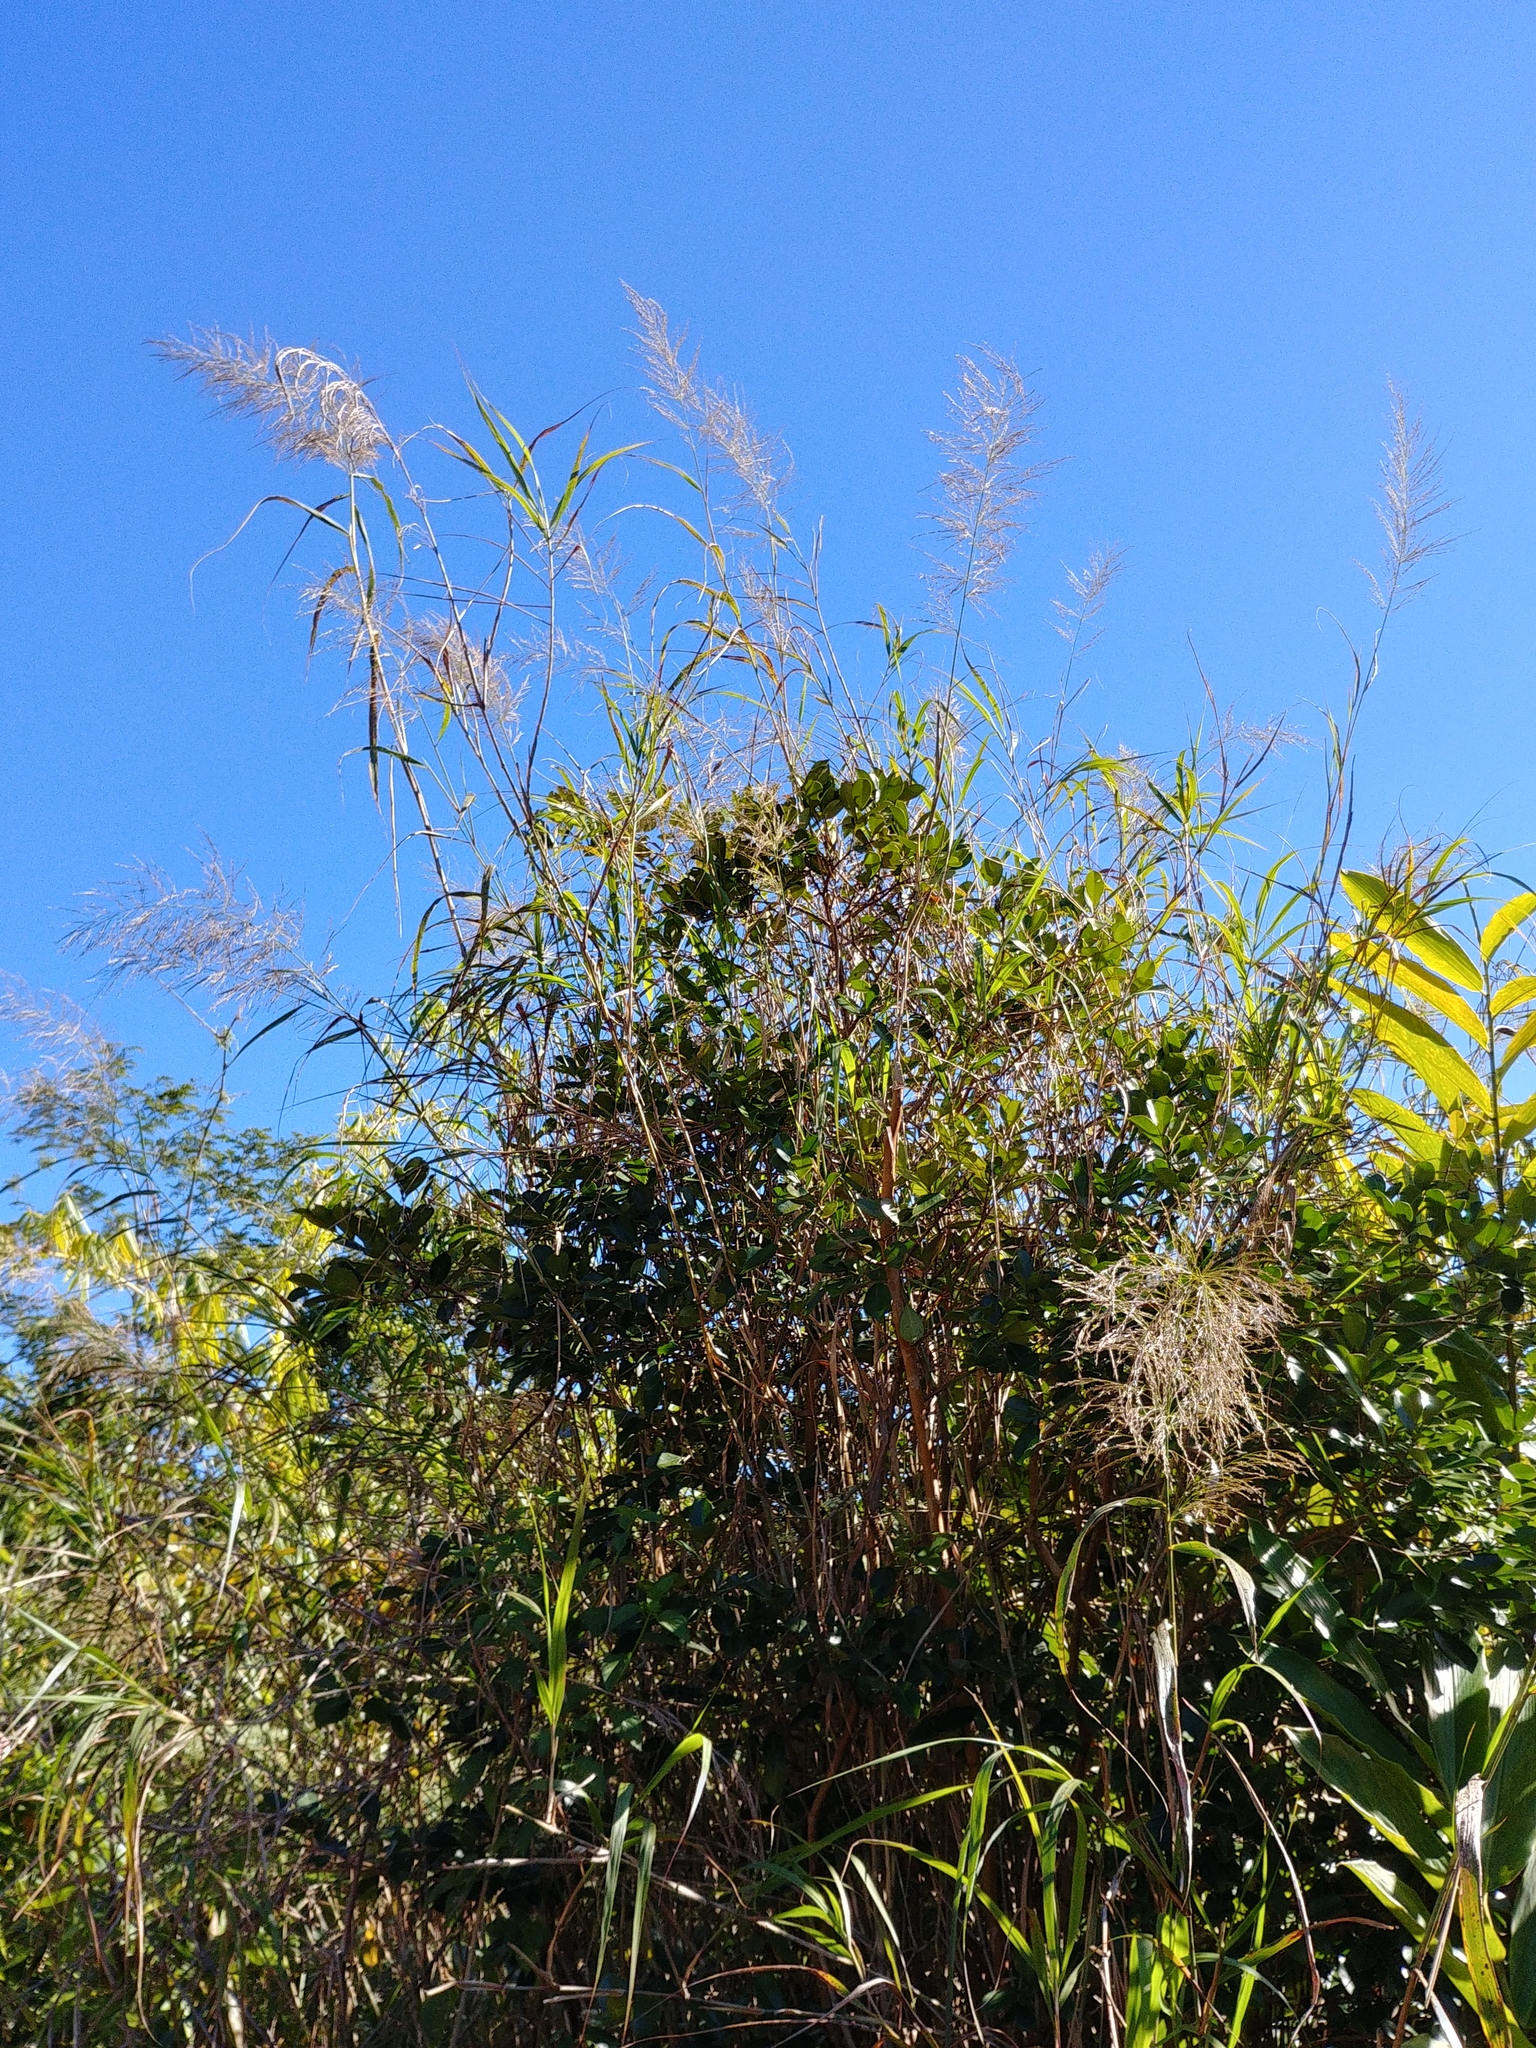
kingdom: Plantae
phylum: Tracheophyta
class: Liliopsida
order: Poales
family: Poaceae
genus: Neyraudia
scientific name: Neyraudia arundinacea
